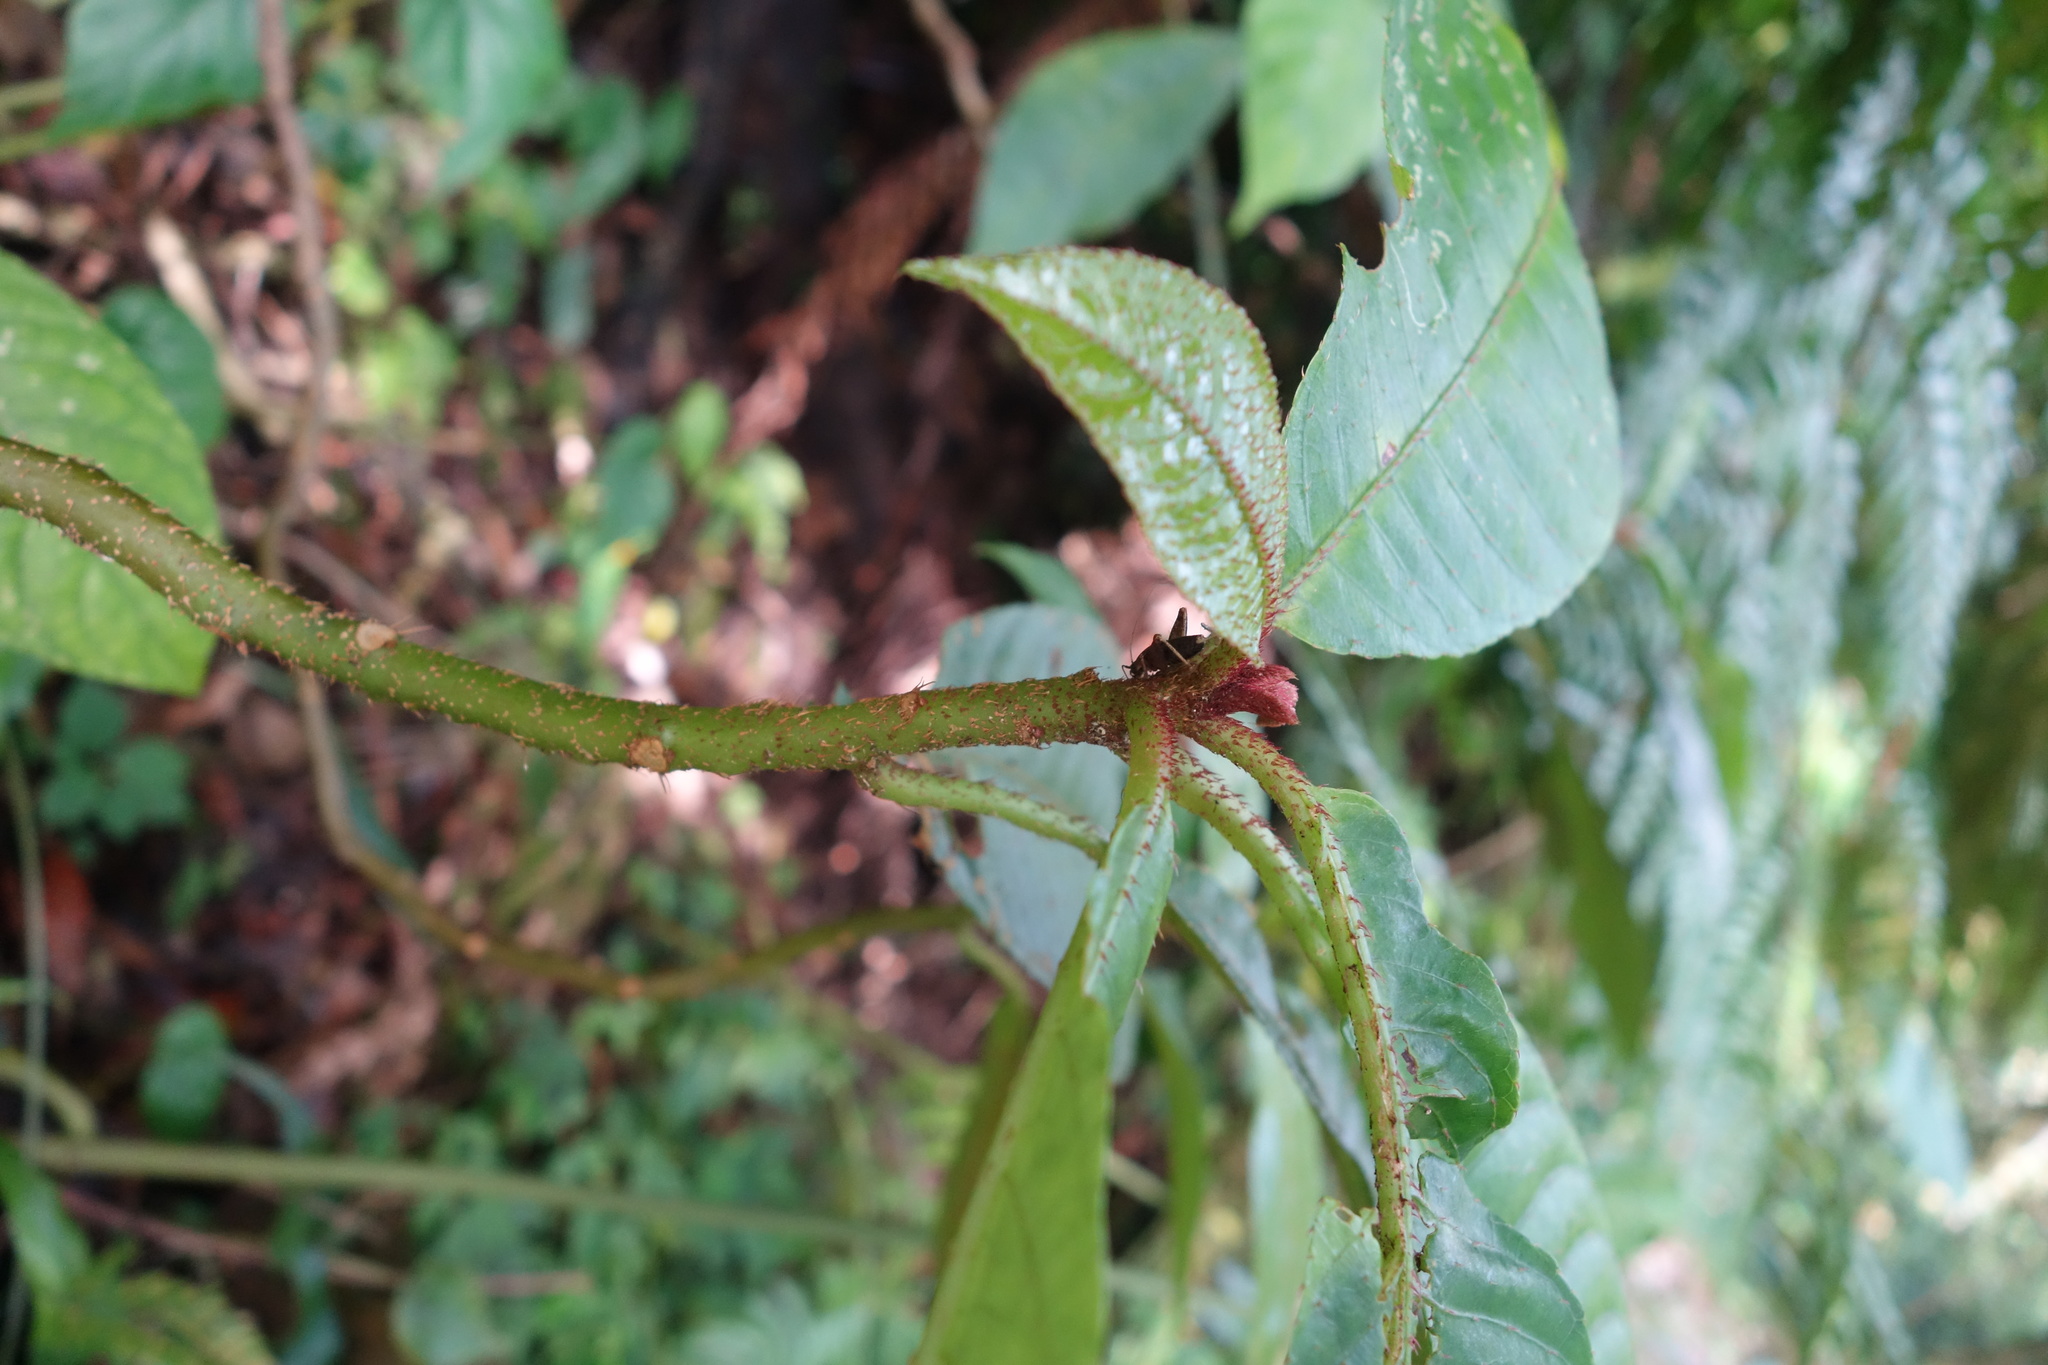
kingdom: Plantae
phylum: Tracheophyta
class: Magnoliopsida
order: Ericales
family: Actinidiaceae
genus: Saurauia
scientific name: Saurauia tristyla
